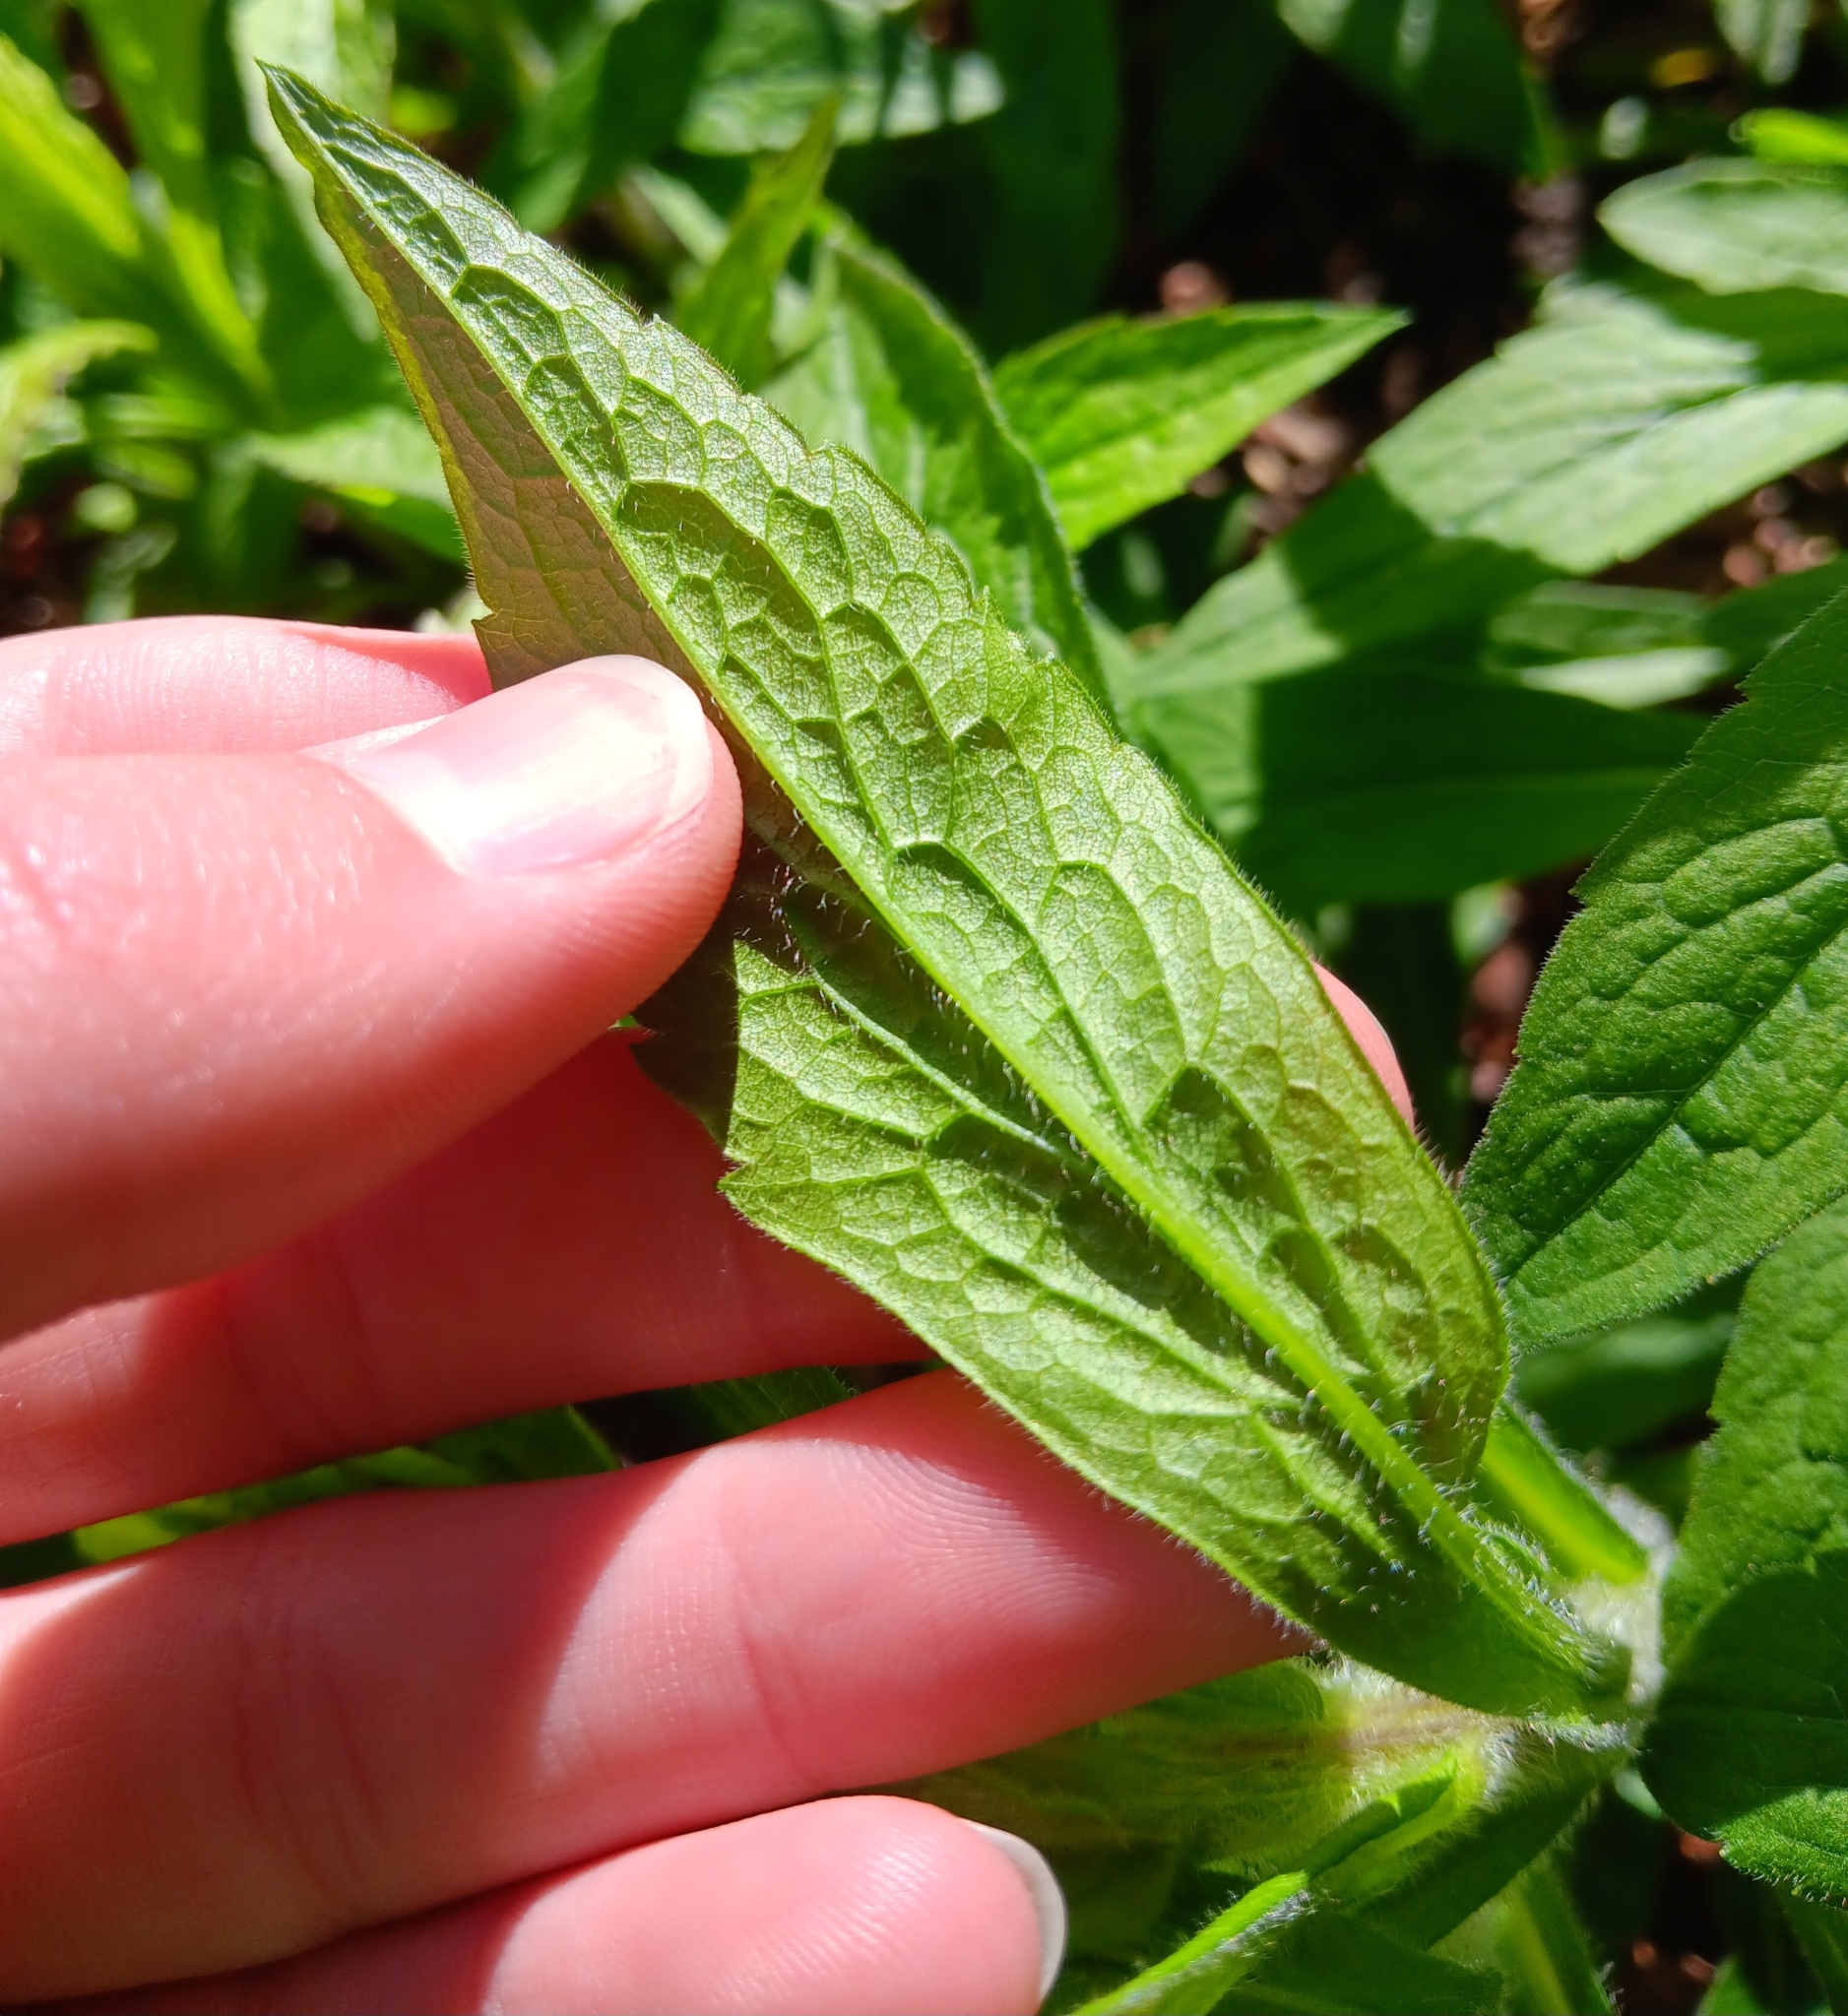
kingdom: Plantae
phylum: Tracheophyta
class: Magnoliopsida
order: Asterales
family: Asteraceae
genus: Solidago
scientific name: Solidago rugosa
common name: Rough-stemmed goldenrod
